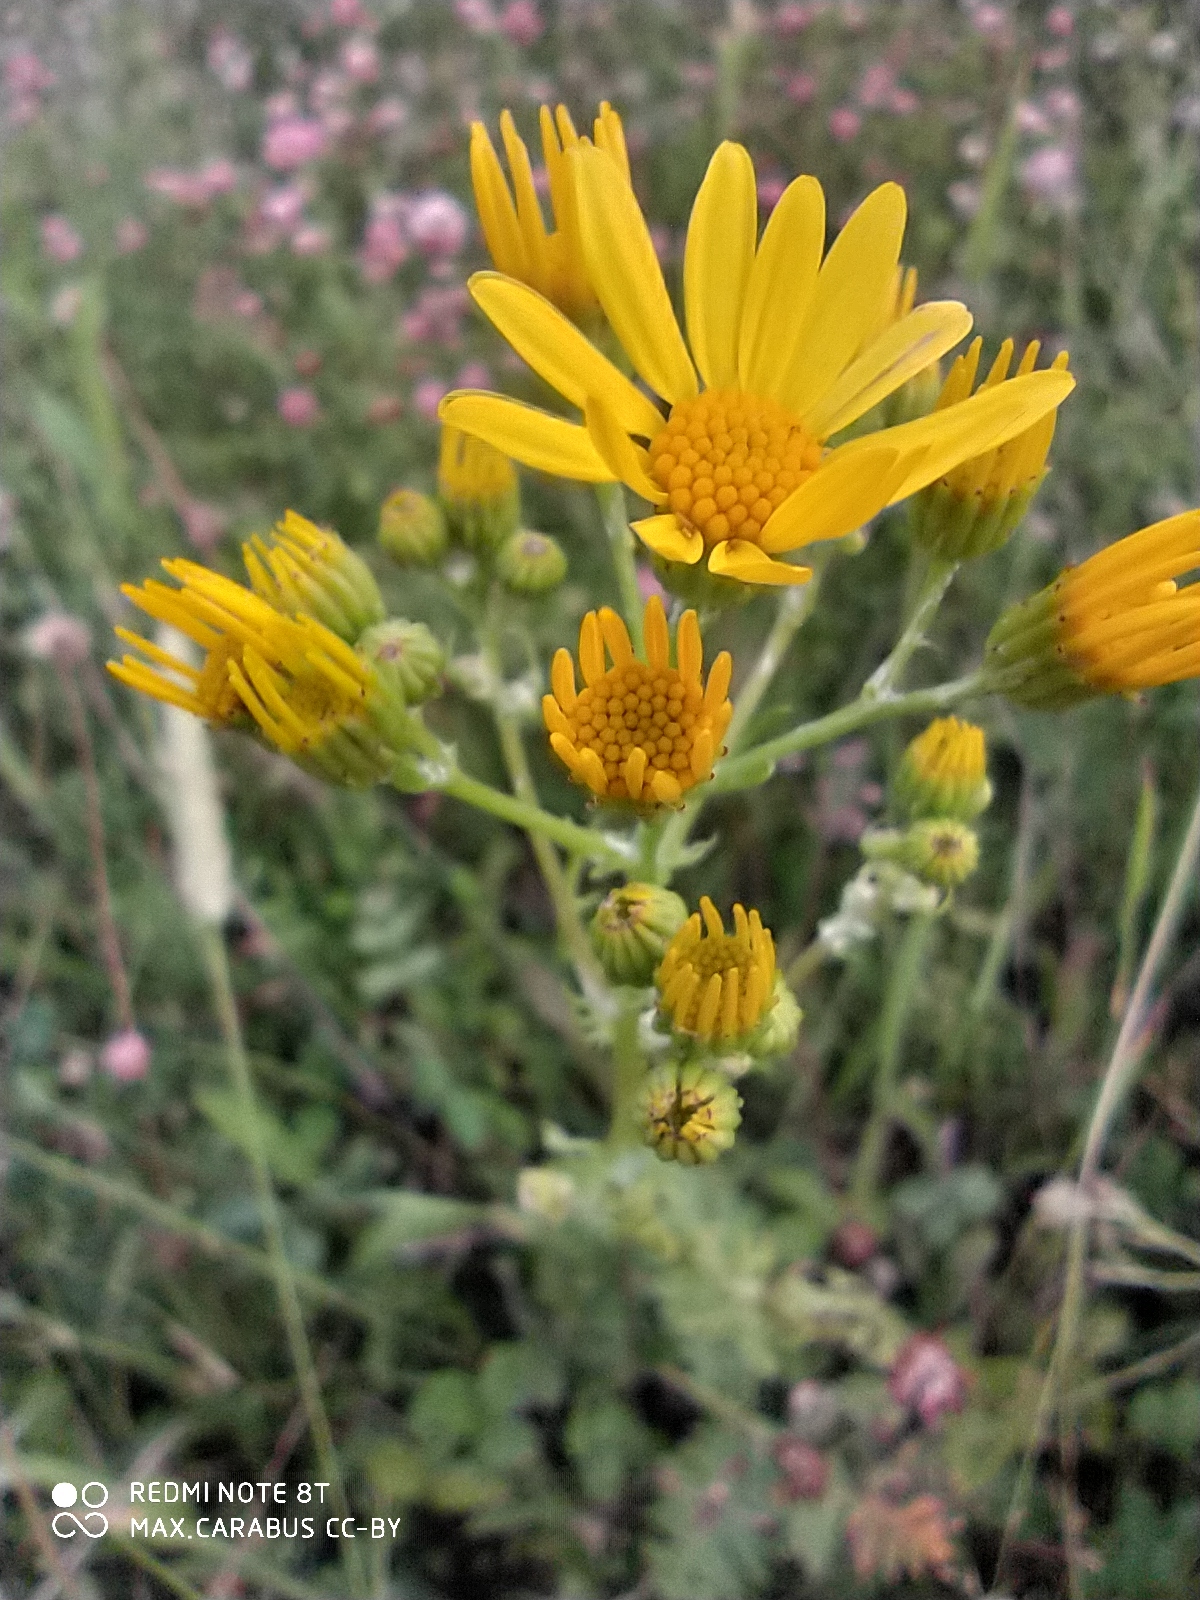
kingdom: Plantae
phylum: Tracheophyta
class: Magnoliopsida
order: Asterales
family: Asteraceae
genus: Jacobaea
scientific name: Jacobaea vulgaris
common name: Stinking willie
